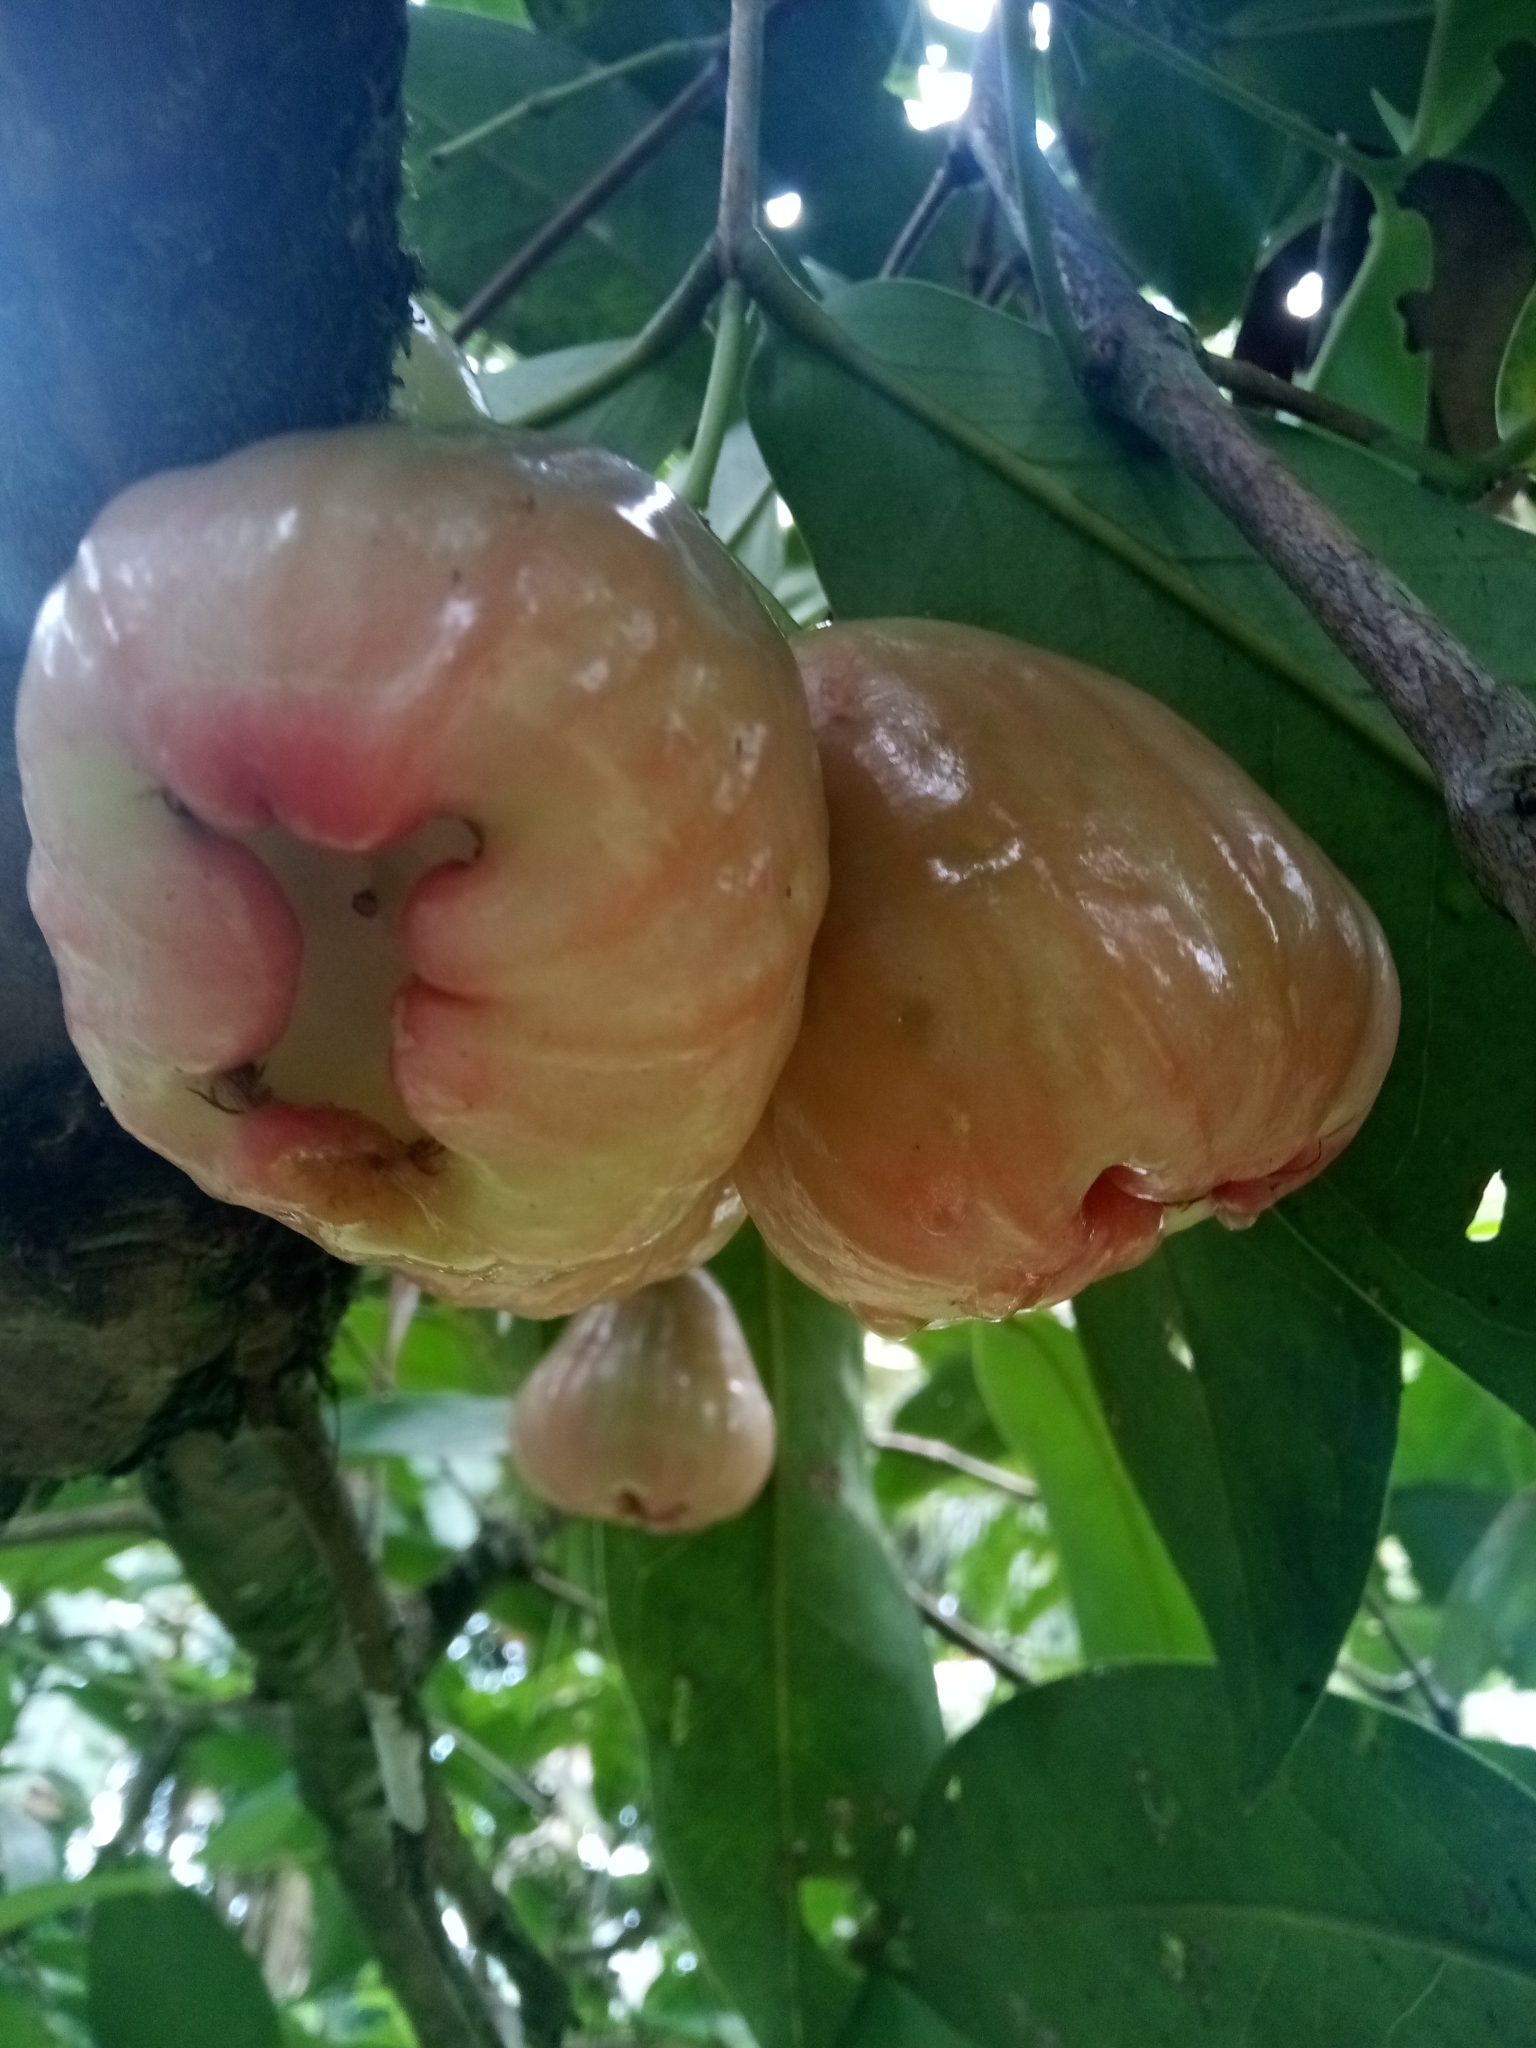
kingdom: Plantae
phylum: Tracheophyta
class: Magnoliopsida
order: Myrtales
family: Myrtaceae
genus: Syzygium
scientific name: Syzygium samarangense
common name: Semarang rose-apple
